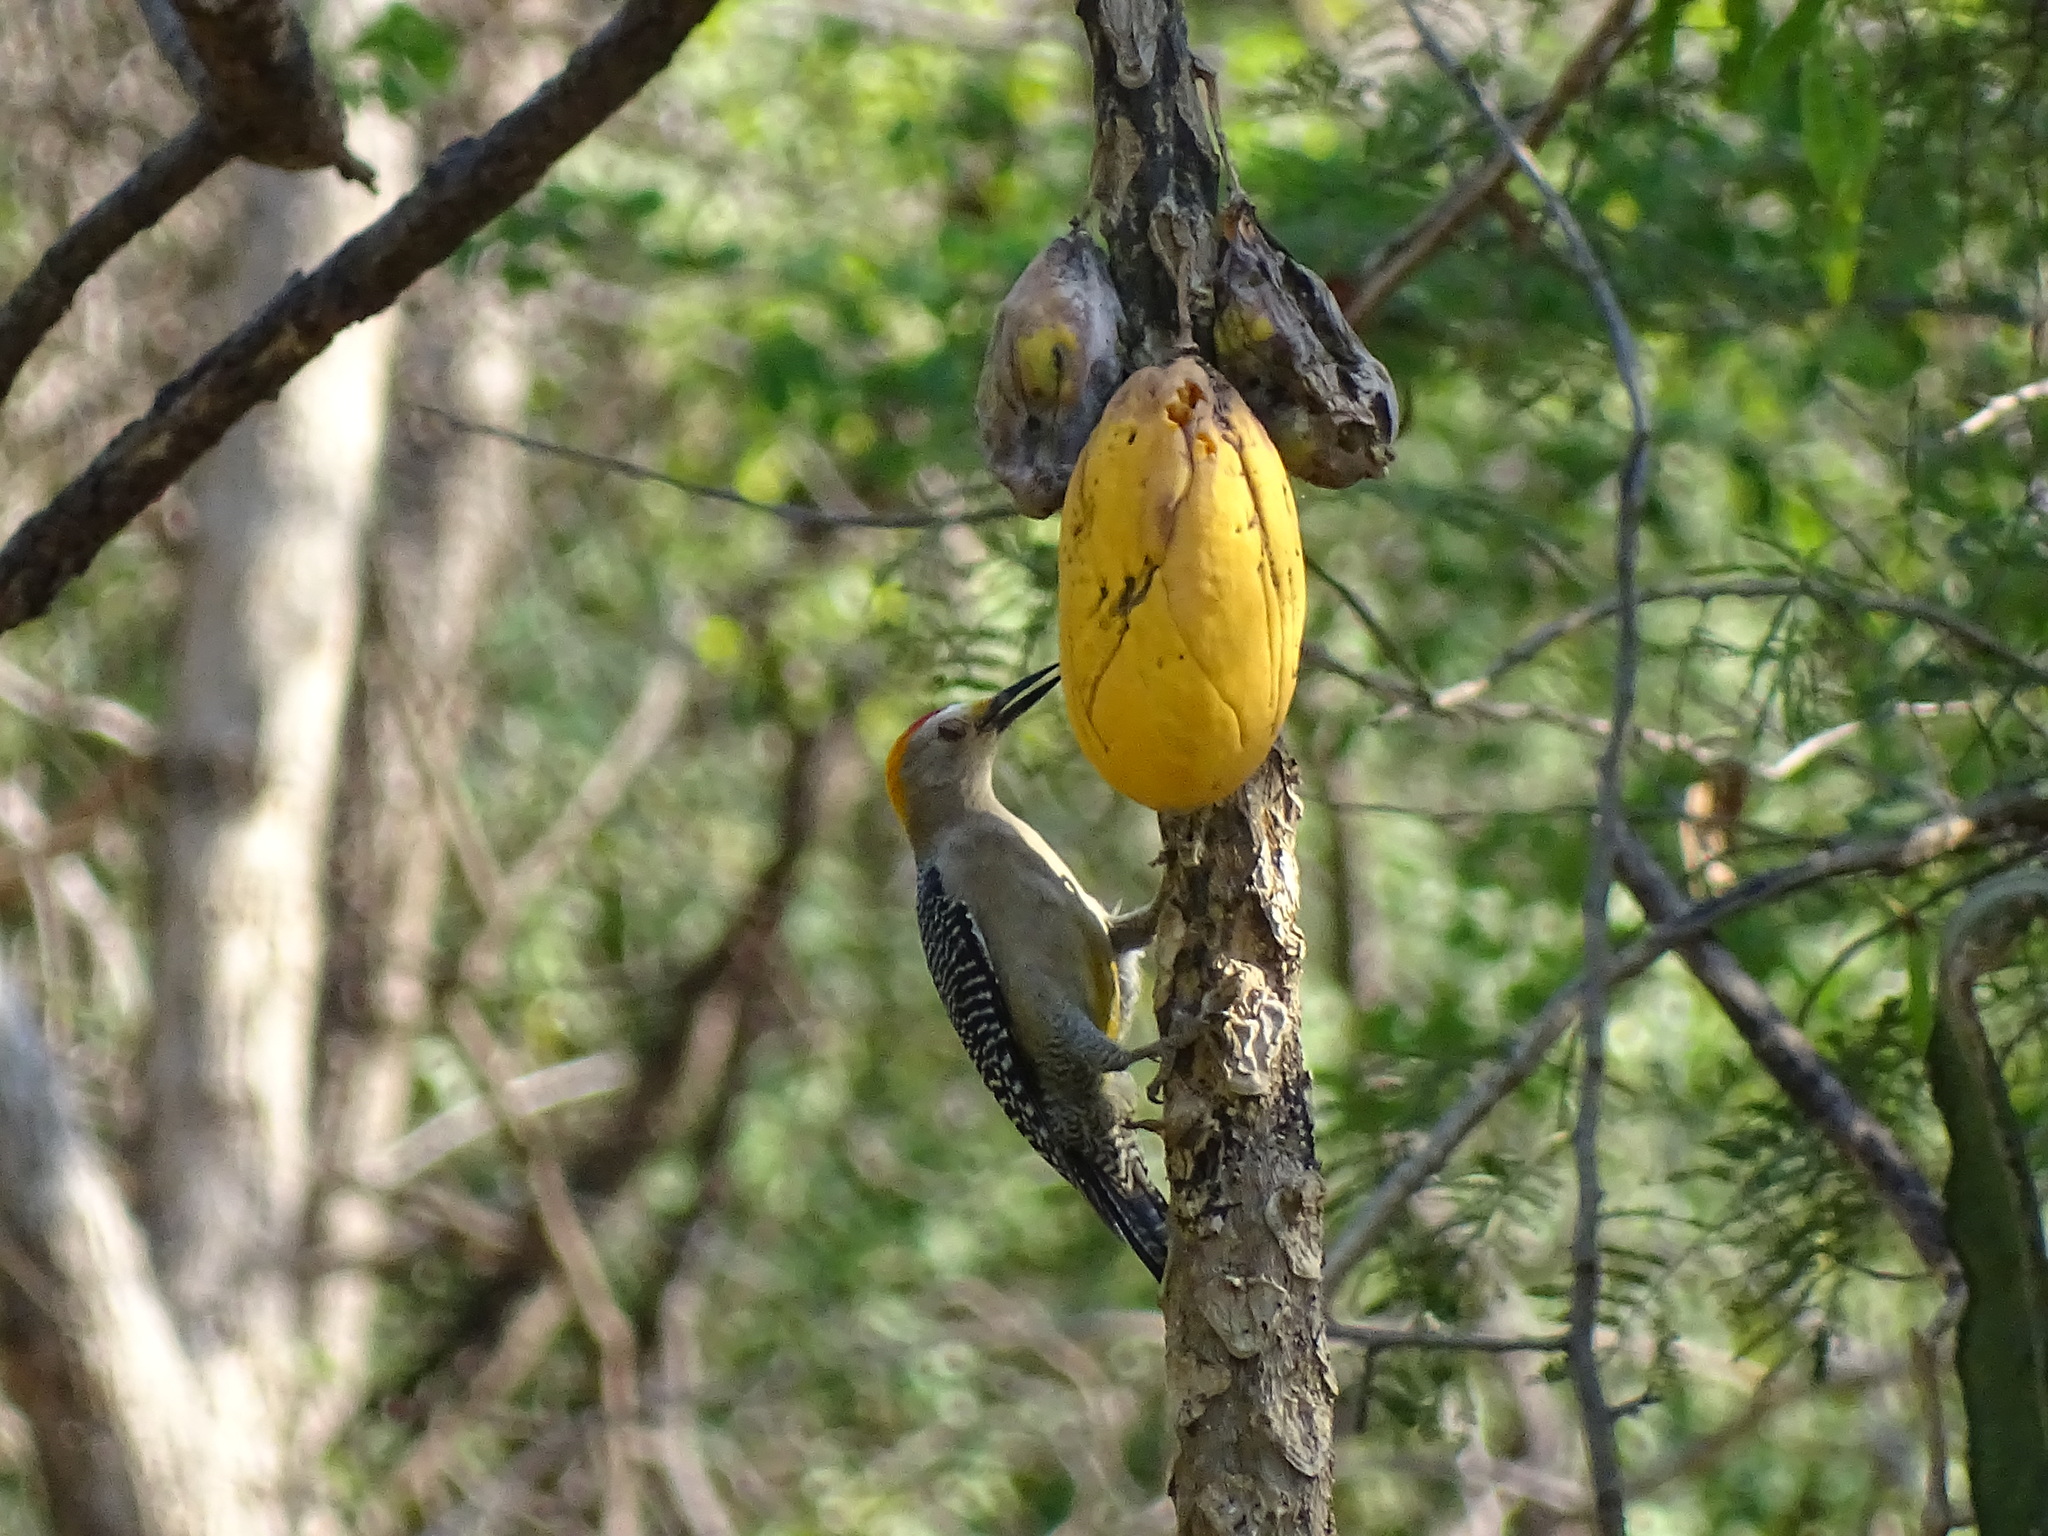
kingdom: Animalia
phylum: Chordata
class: Aves
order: Piciformes
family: Picidae
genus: Melanerpes
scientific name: Melanerpes aurifrons
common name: Golden-fronted woodpecker
